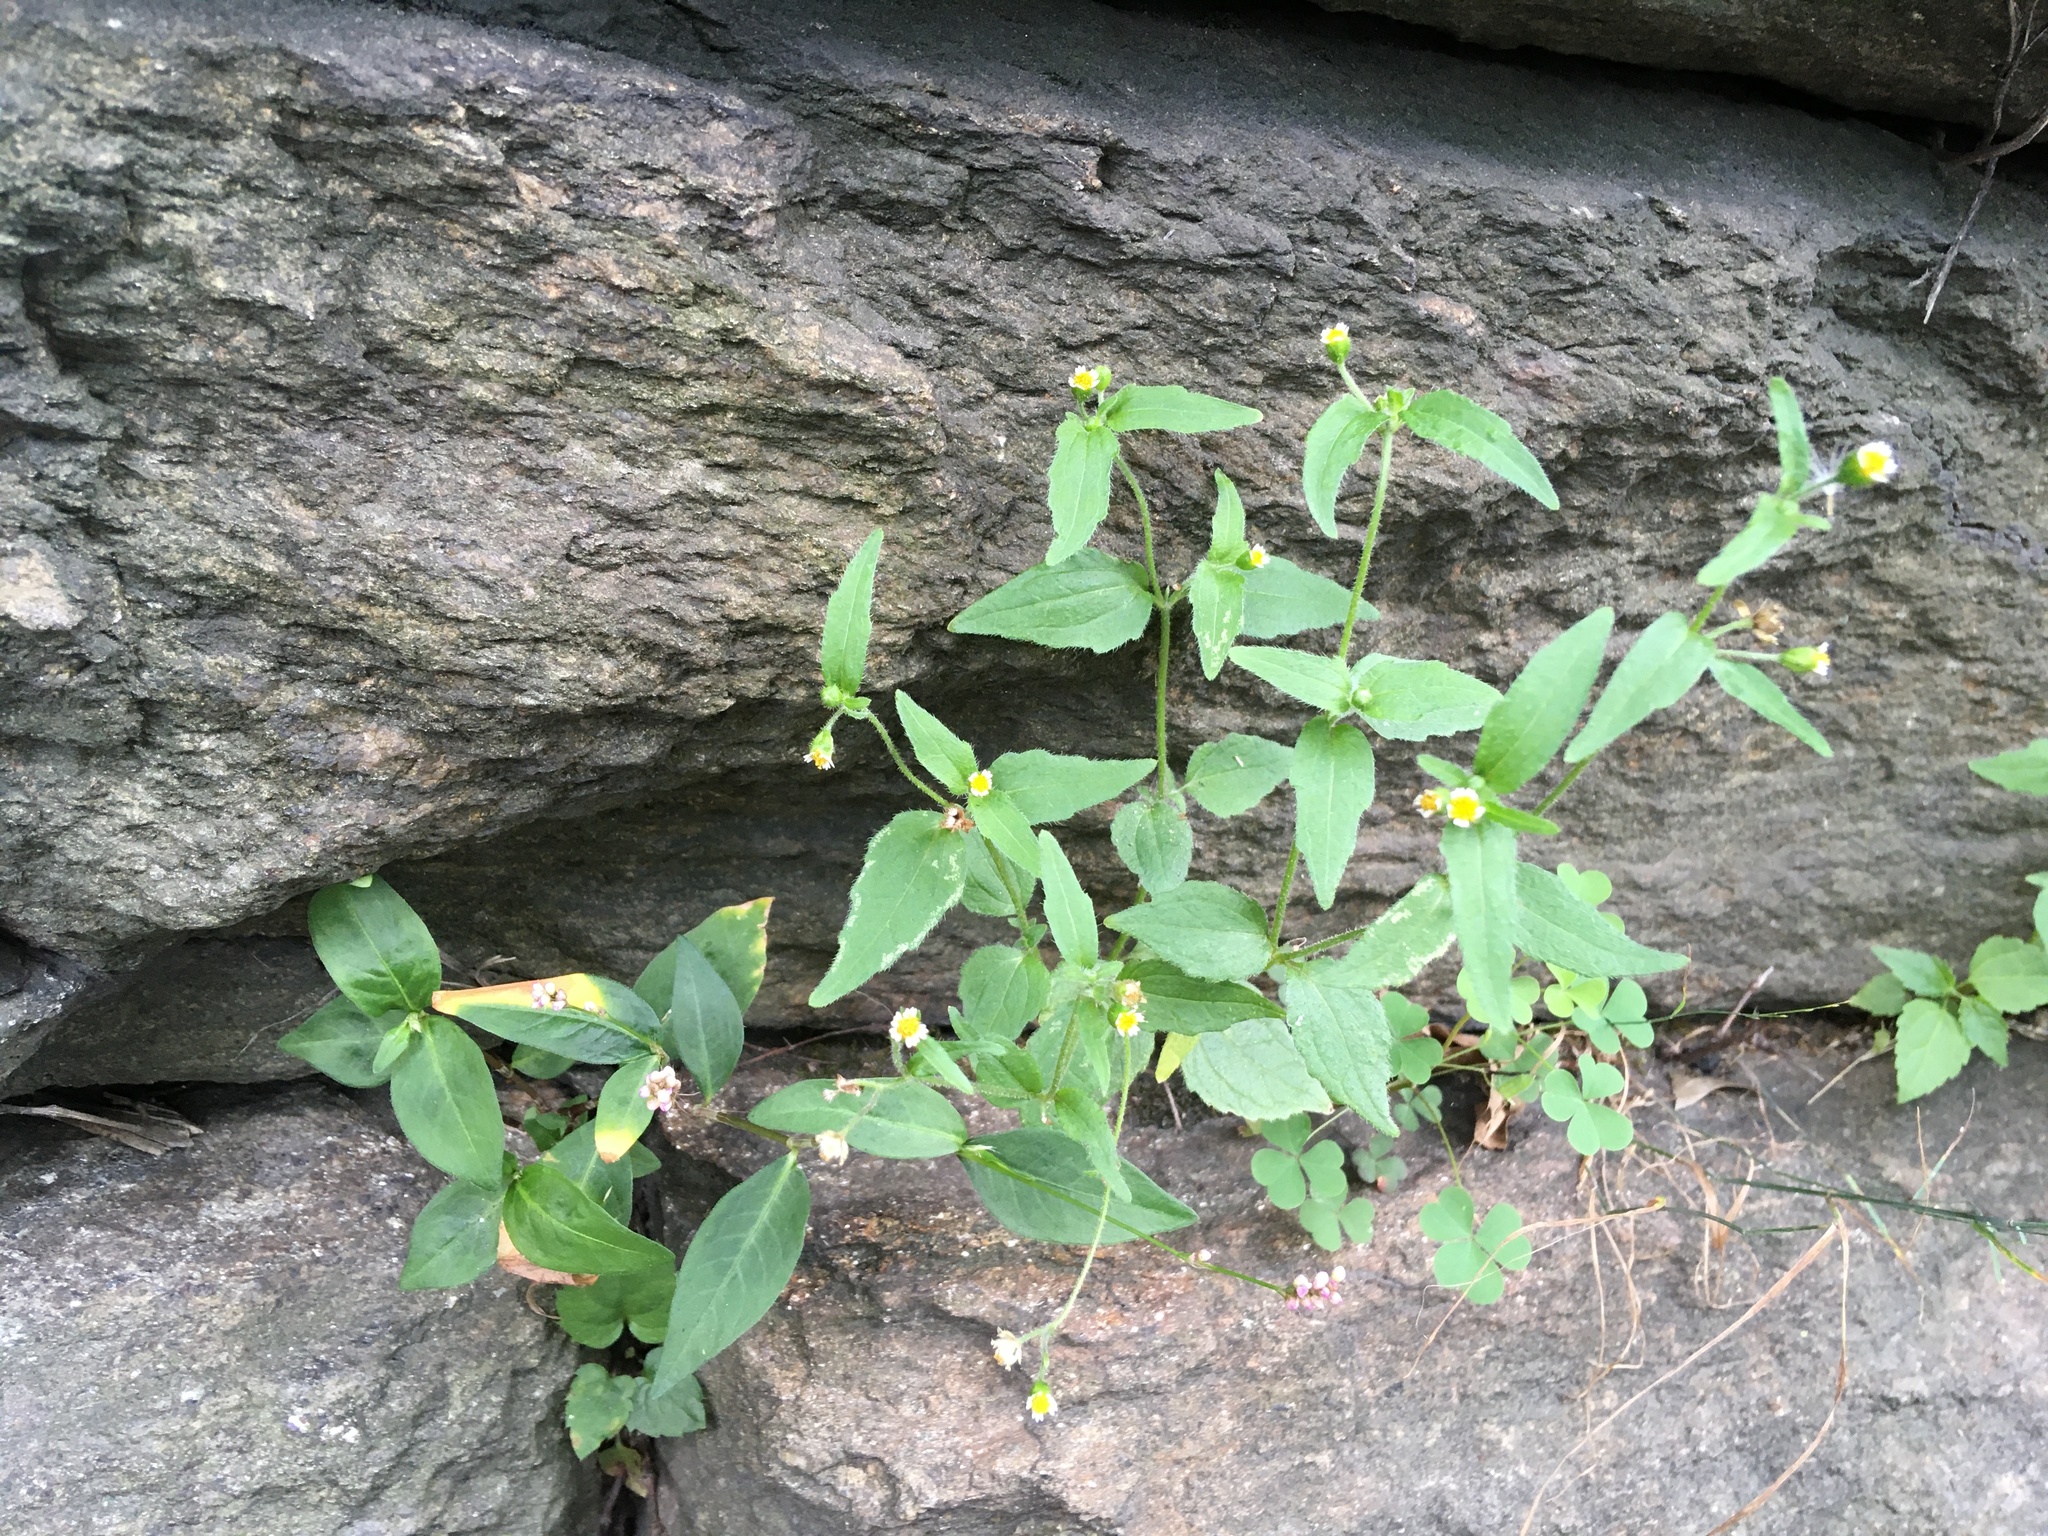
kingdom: Plantae
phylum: Tracheophyta
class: Magnoliopsida
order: Asterales
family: Asteraceae
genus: Galinsoga
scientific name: Galinsoga quadriradiata
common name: Shaggy soldier
